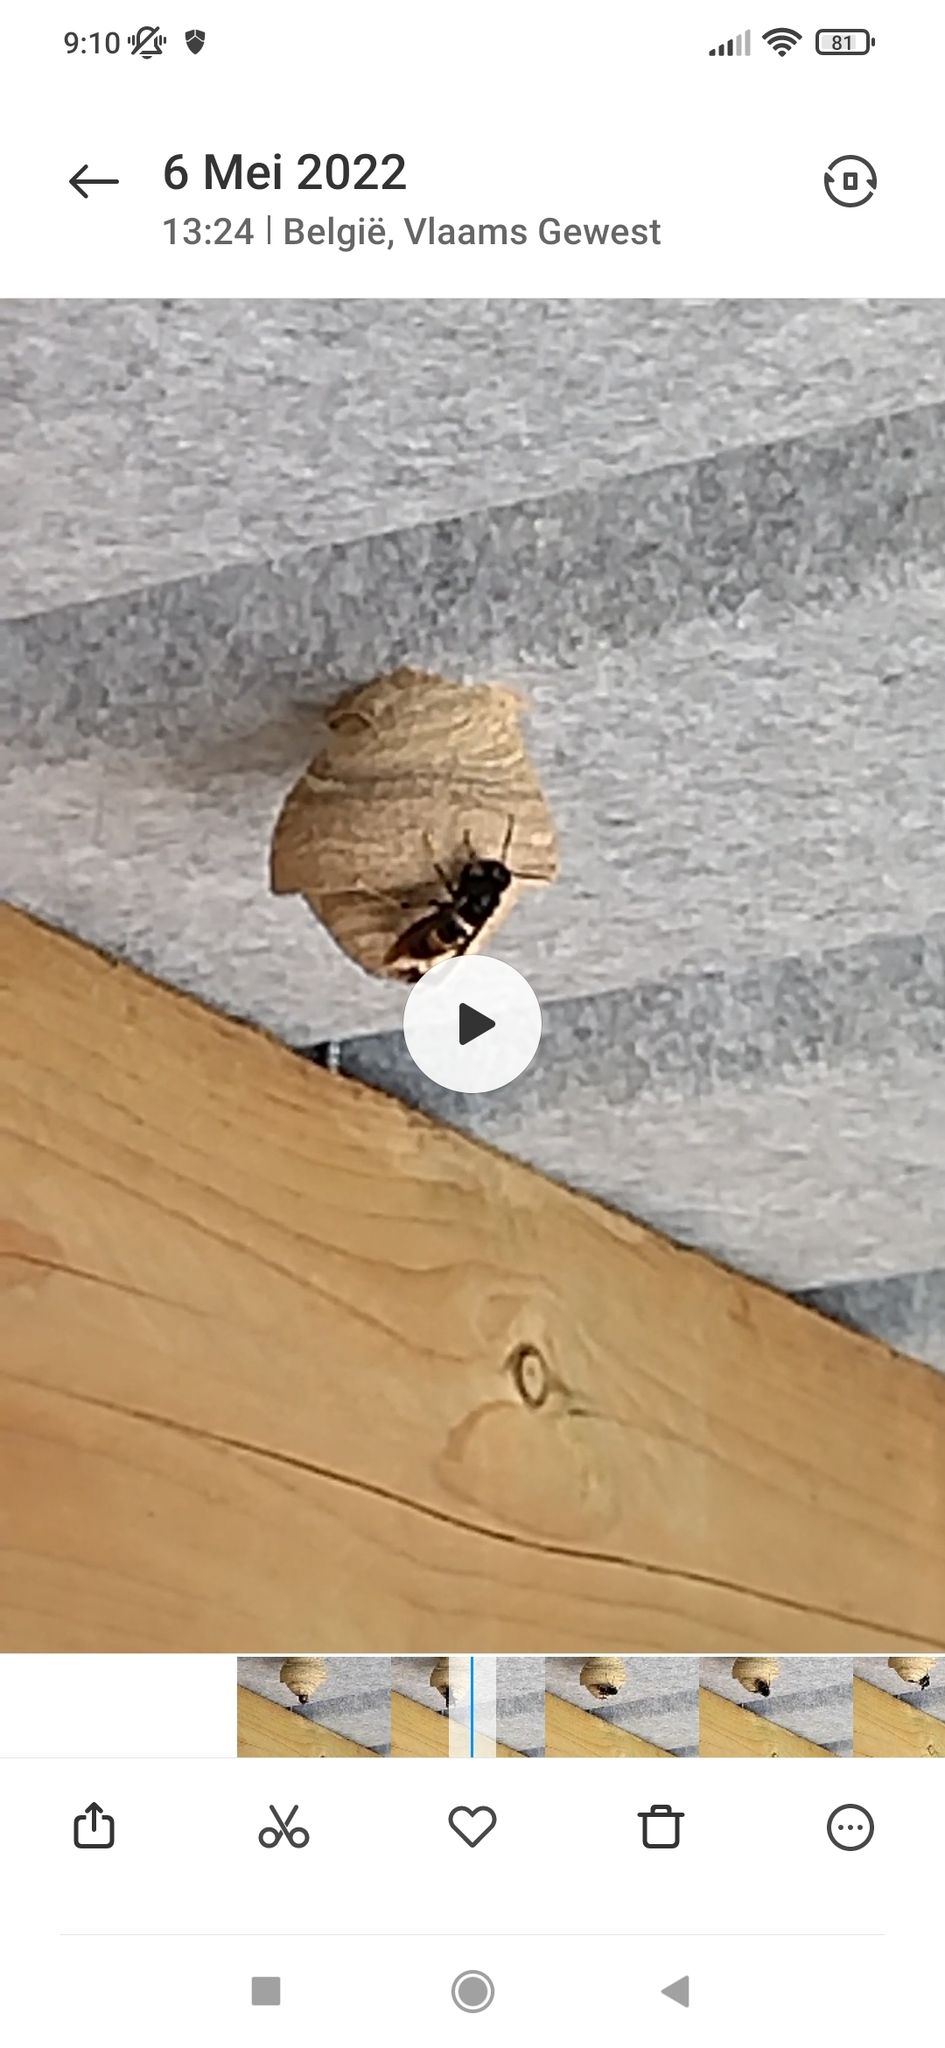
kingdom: Animalia
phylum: Arthropoda
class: Insecta
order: Hymenoptera
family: Vespidae
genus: Vespa
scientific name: Vespa velutina
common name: Asian hornet
